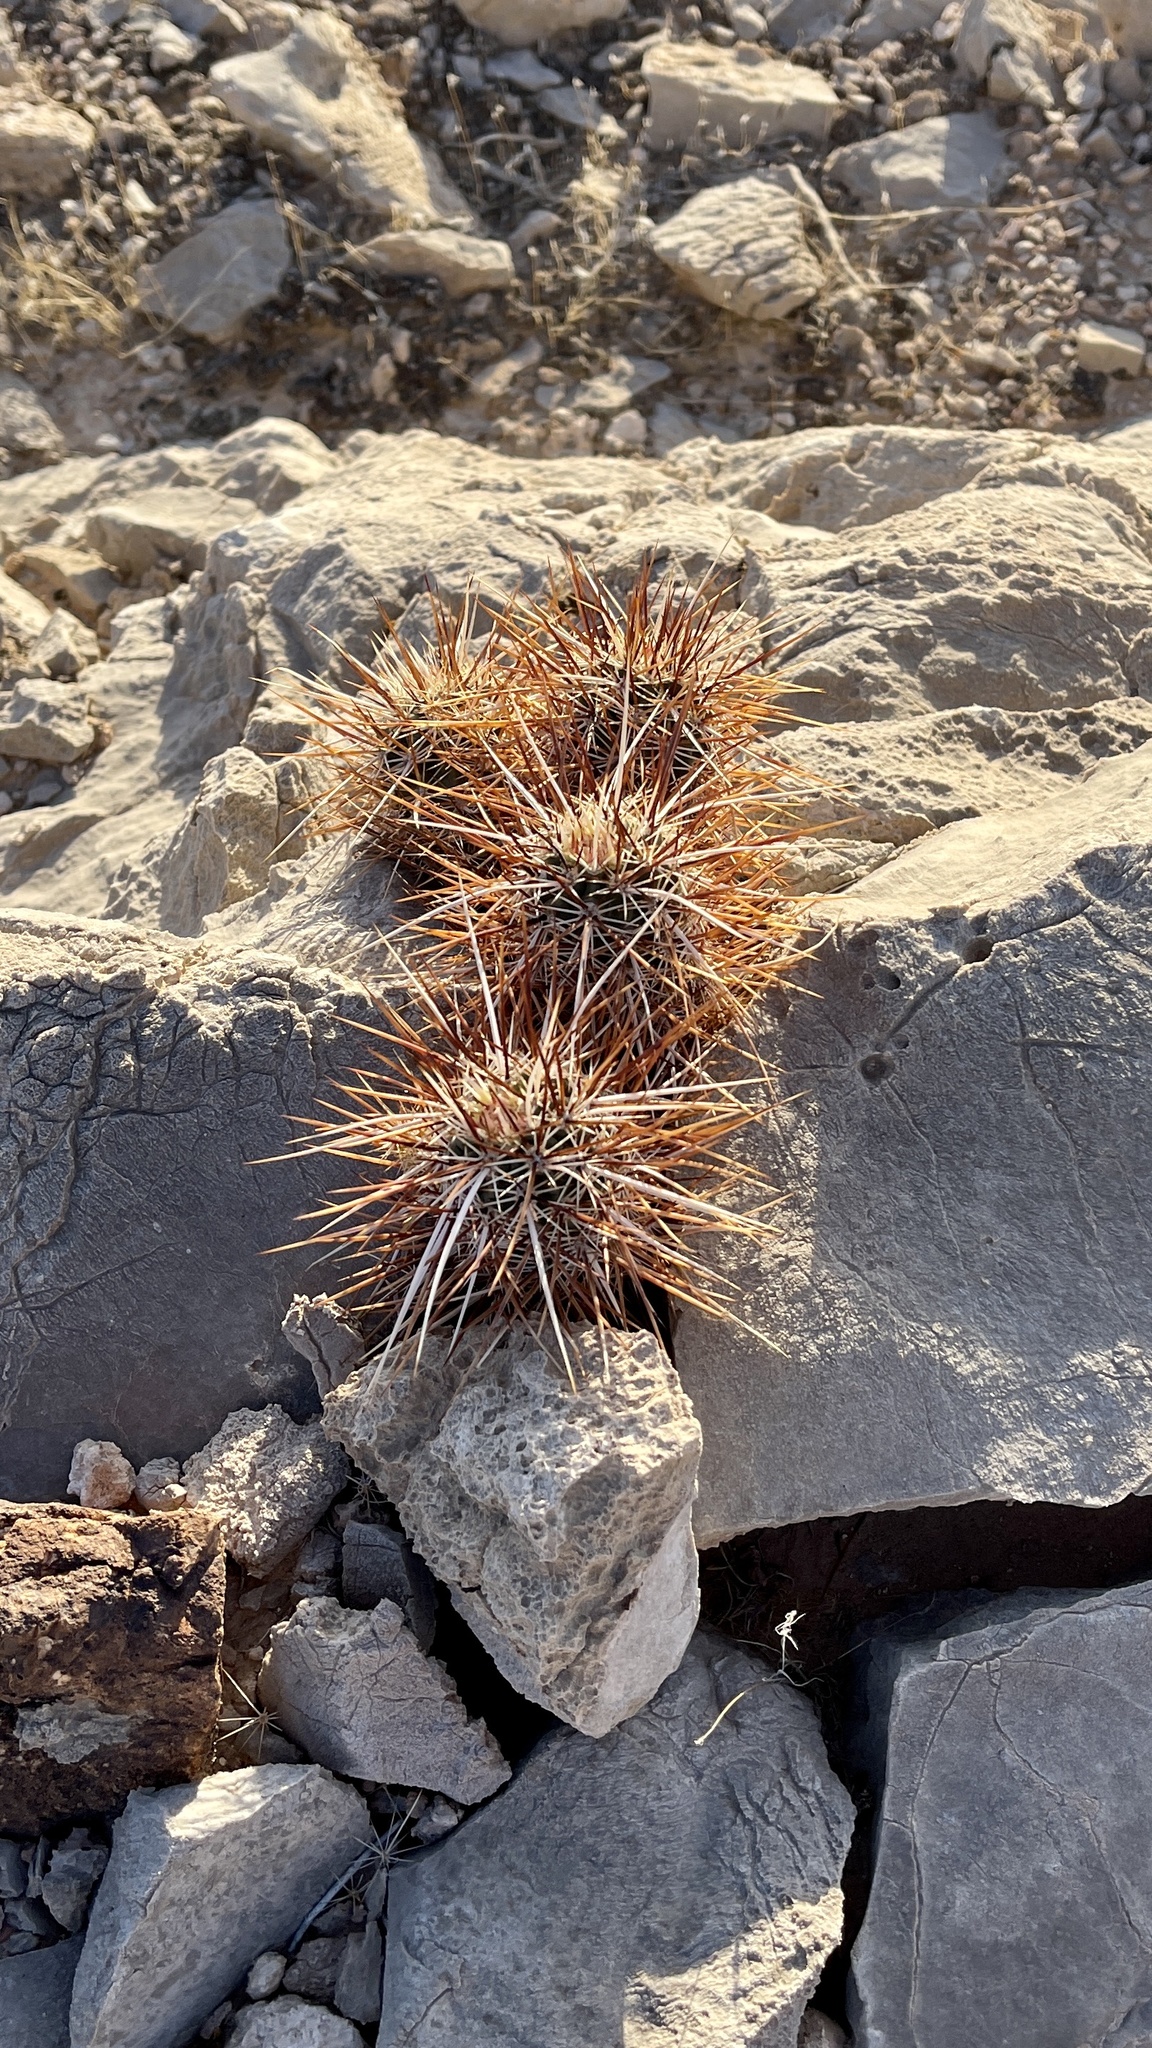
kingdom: Plantae
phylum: Tracheophyta
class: Magnoliopsida
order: Caryophyllales
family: Cactaceae
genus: Echinocereus
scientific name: Echinocereus engelmannii
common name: Engelmann's hedgehog cactus
